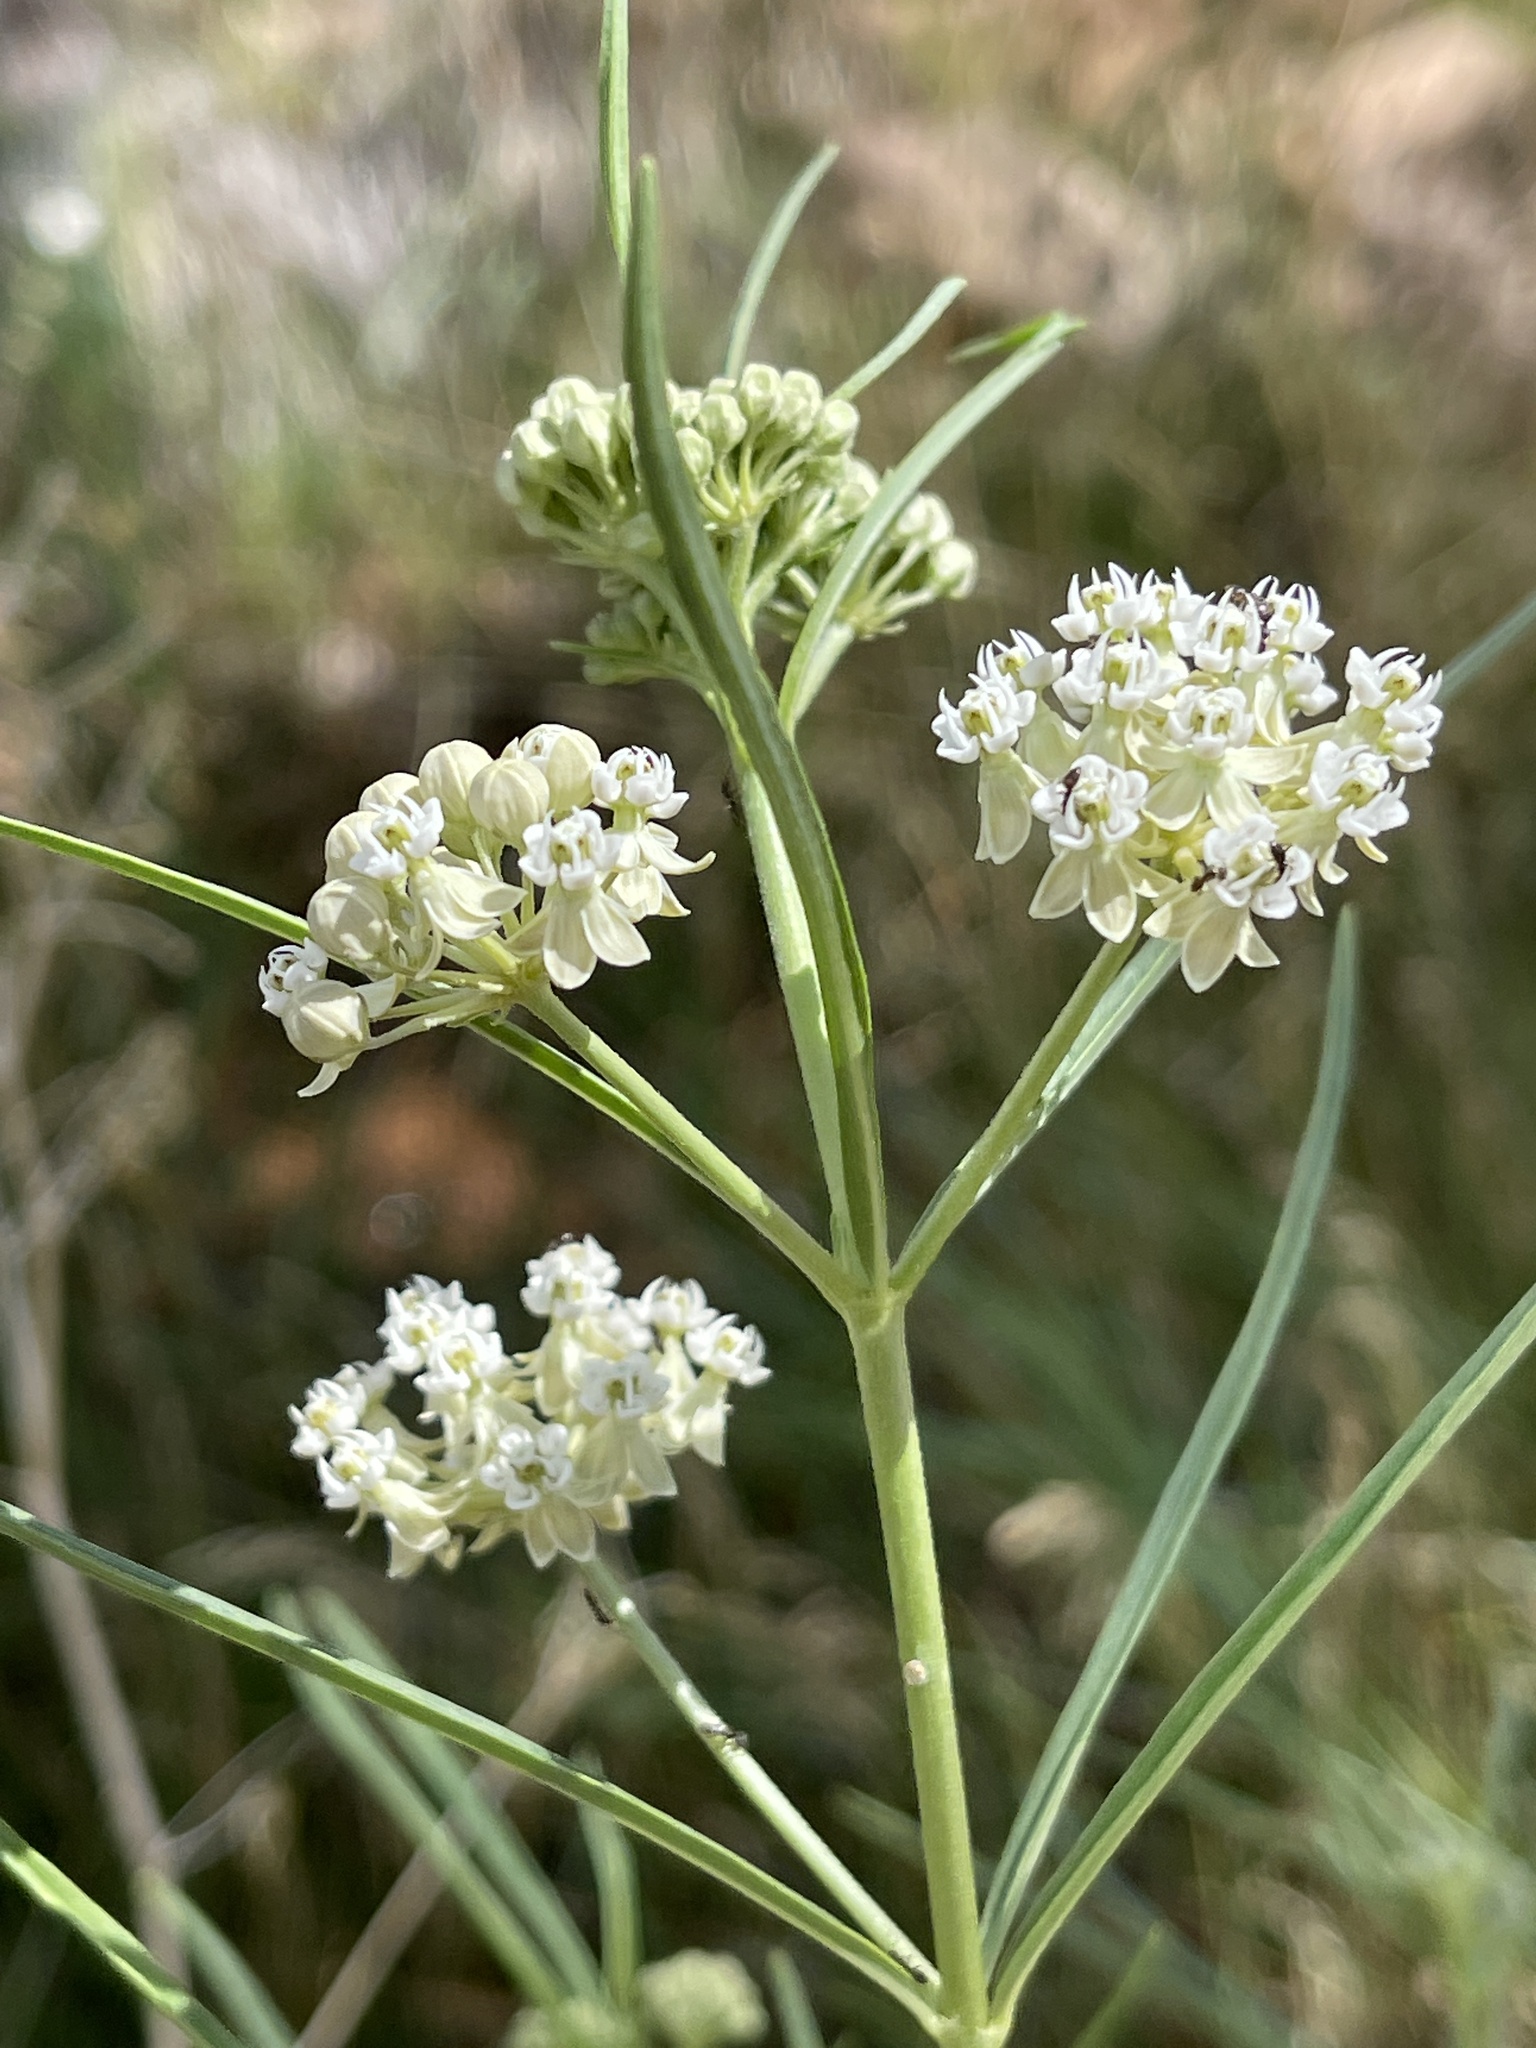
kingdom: Plantae
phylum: Tracheophyta
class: Magnoliopsida
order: Gentianales
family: Apocynaceae
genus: Asclepias
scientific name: Asclepias subverticillata
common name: Horsetail milkweed
